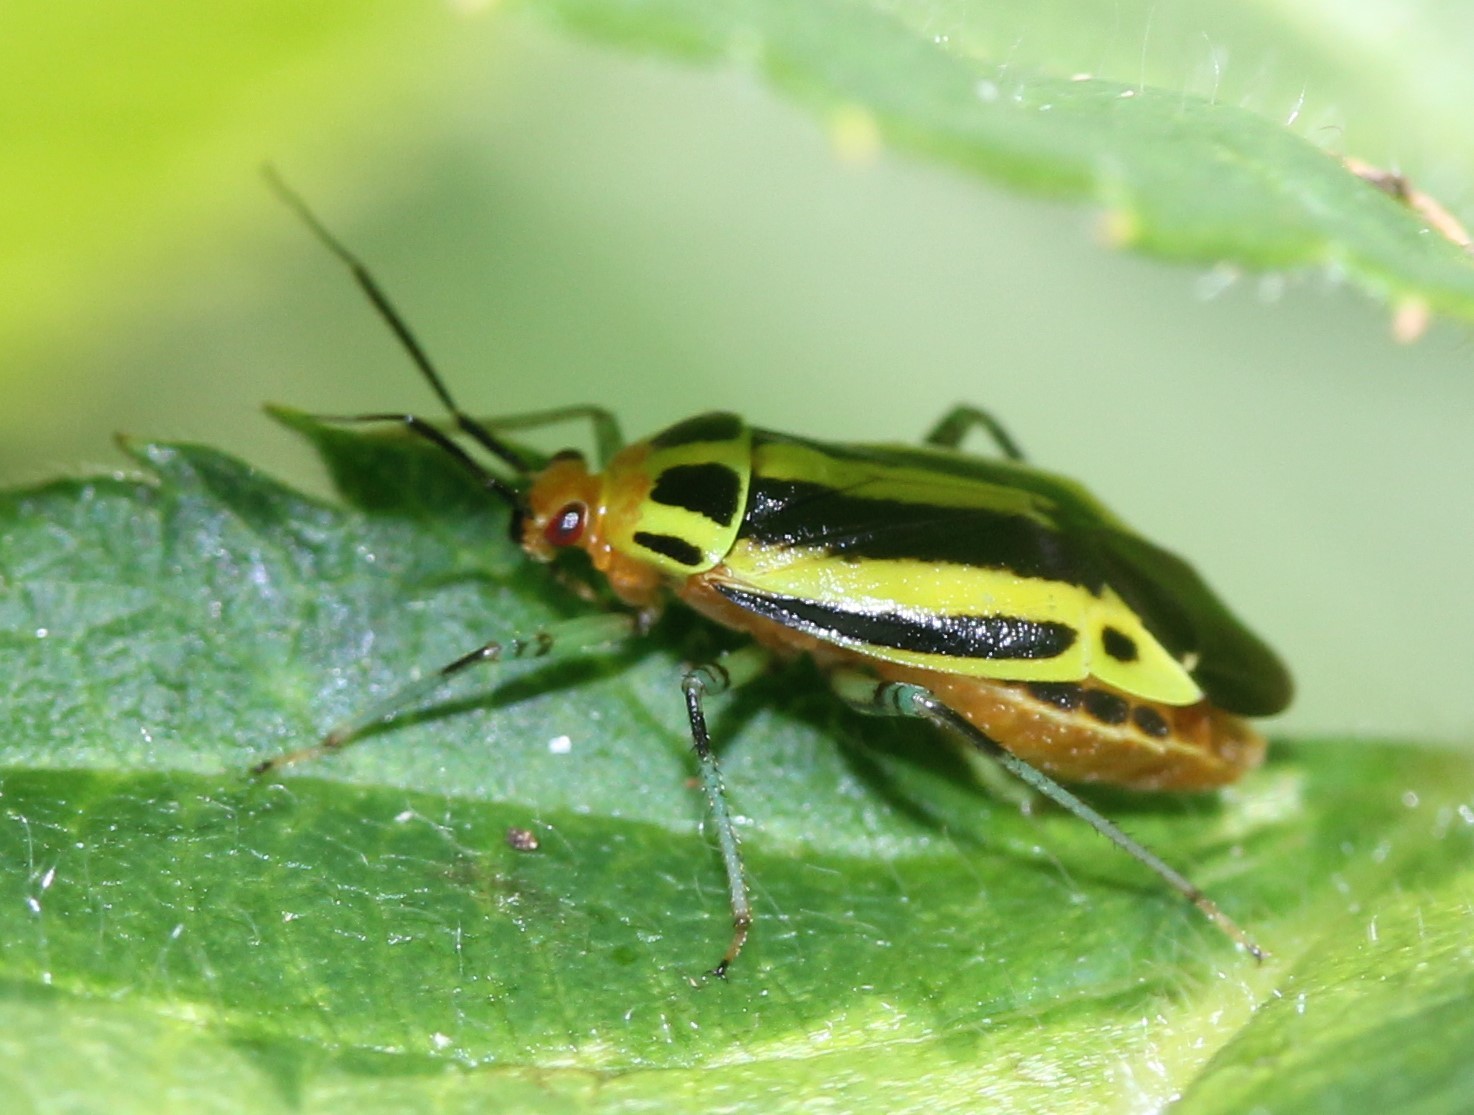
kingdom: Animalia
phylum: Arthropoda
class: Insecta
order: Hemiptera
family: Miridae
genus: Poecilocapsus
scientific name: Poecilocapsus lineatus
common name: Four-lined plant bug
